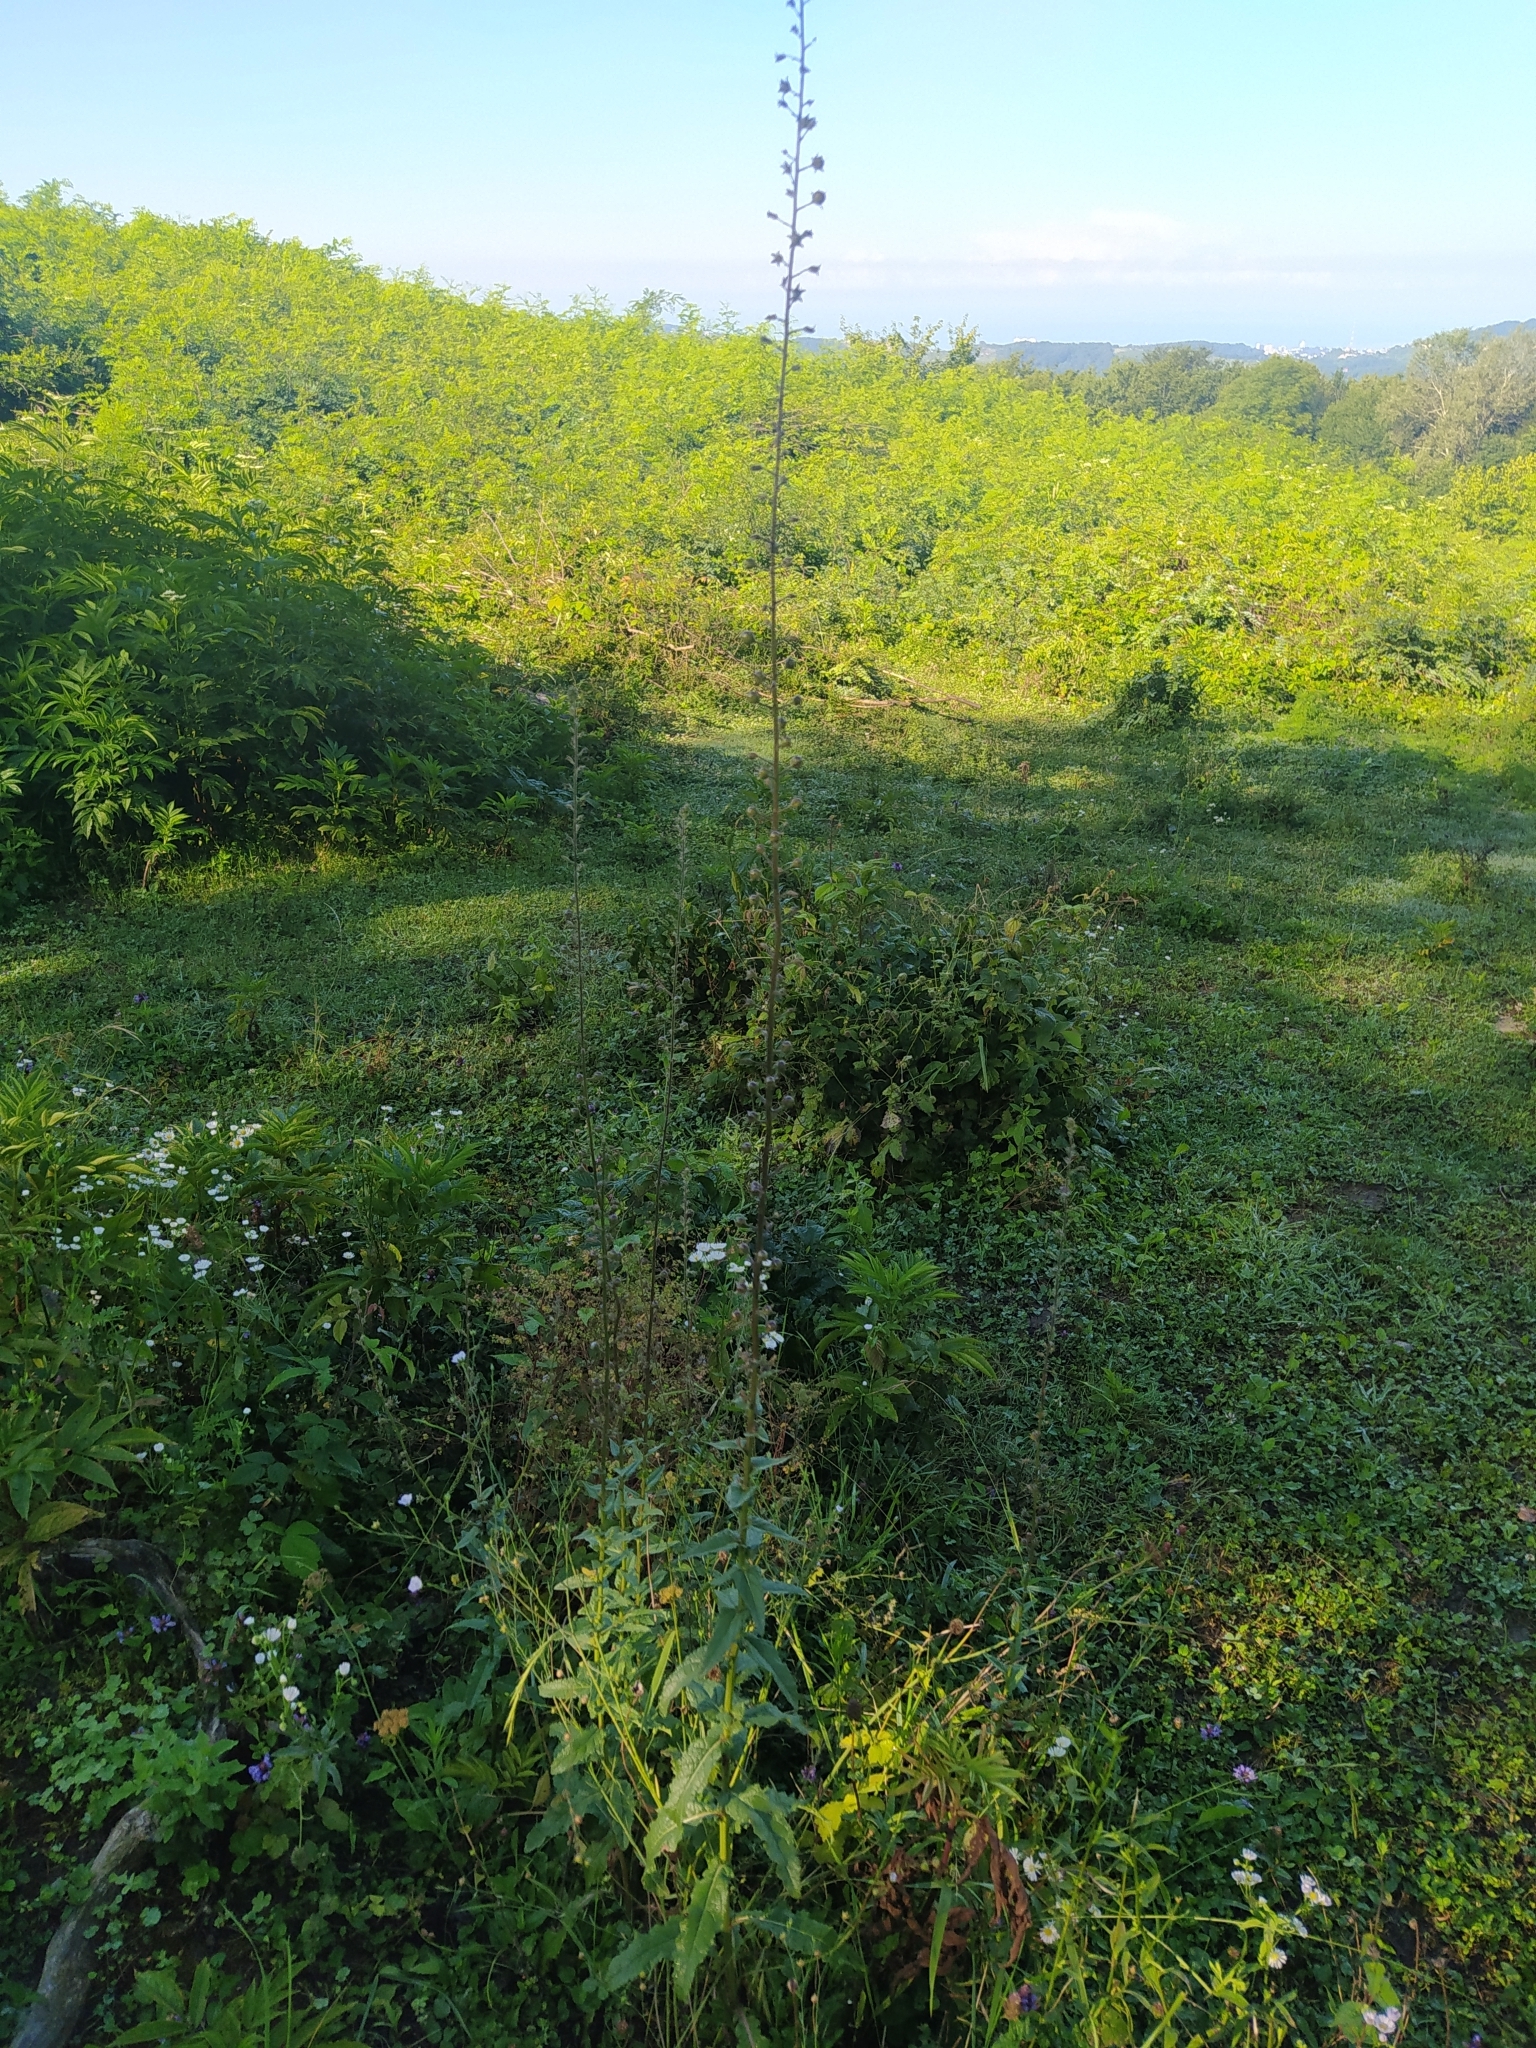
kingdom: Plantae
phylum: Tracheophyta
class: Magnoliopsida
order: Lamiales
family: Scrophulariaceae
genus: Verbascum
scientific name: Verbascum blattaria
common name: Moth mullein
